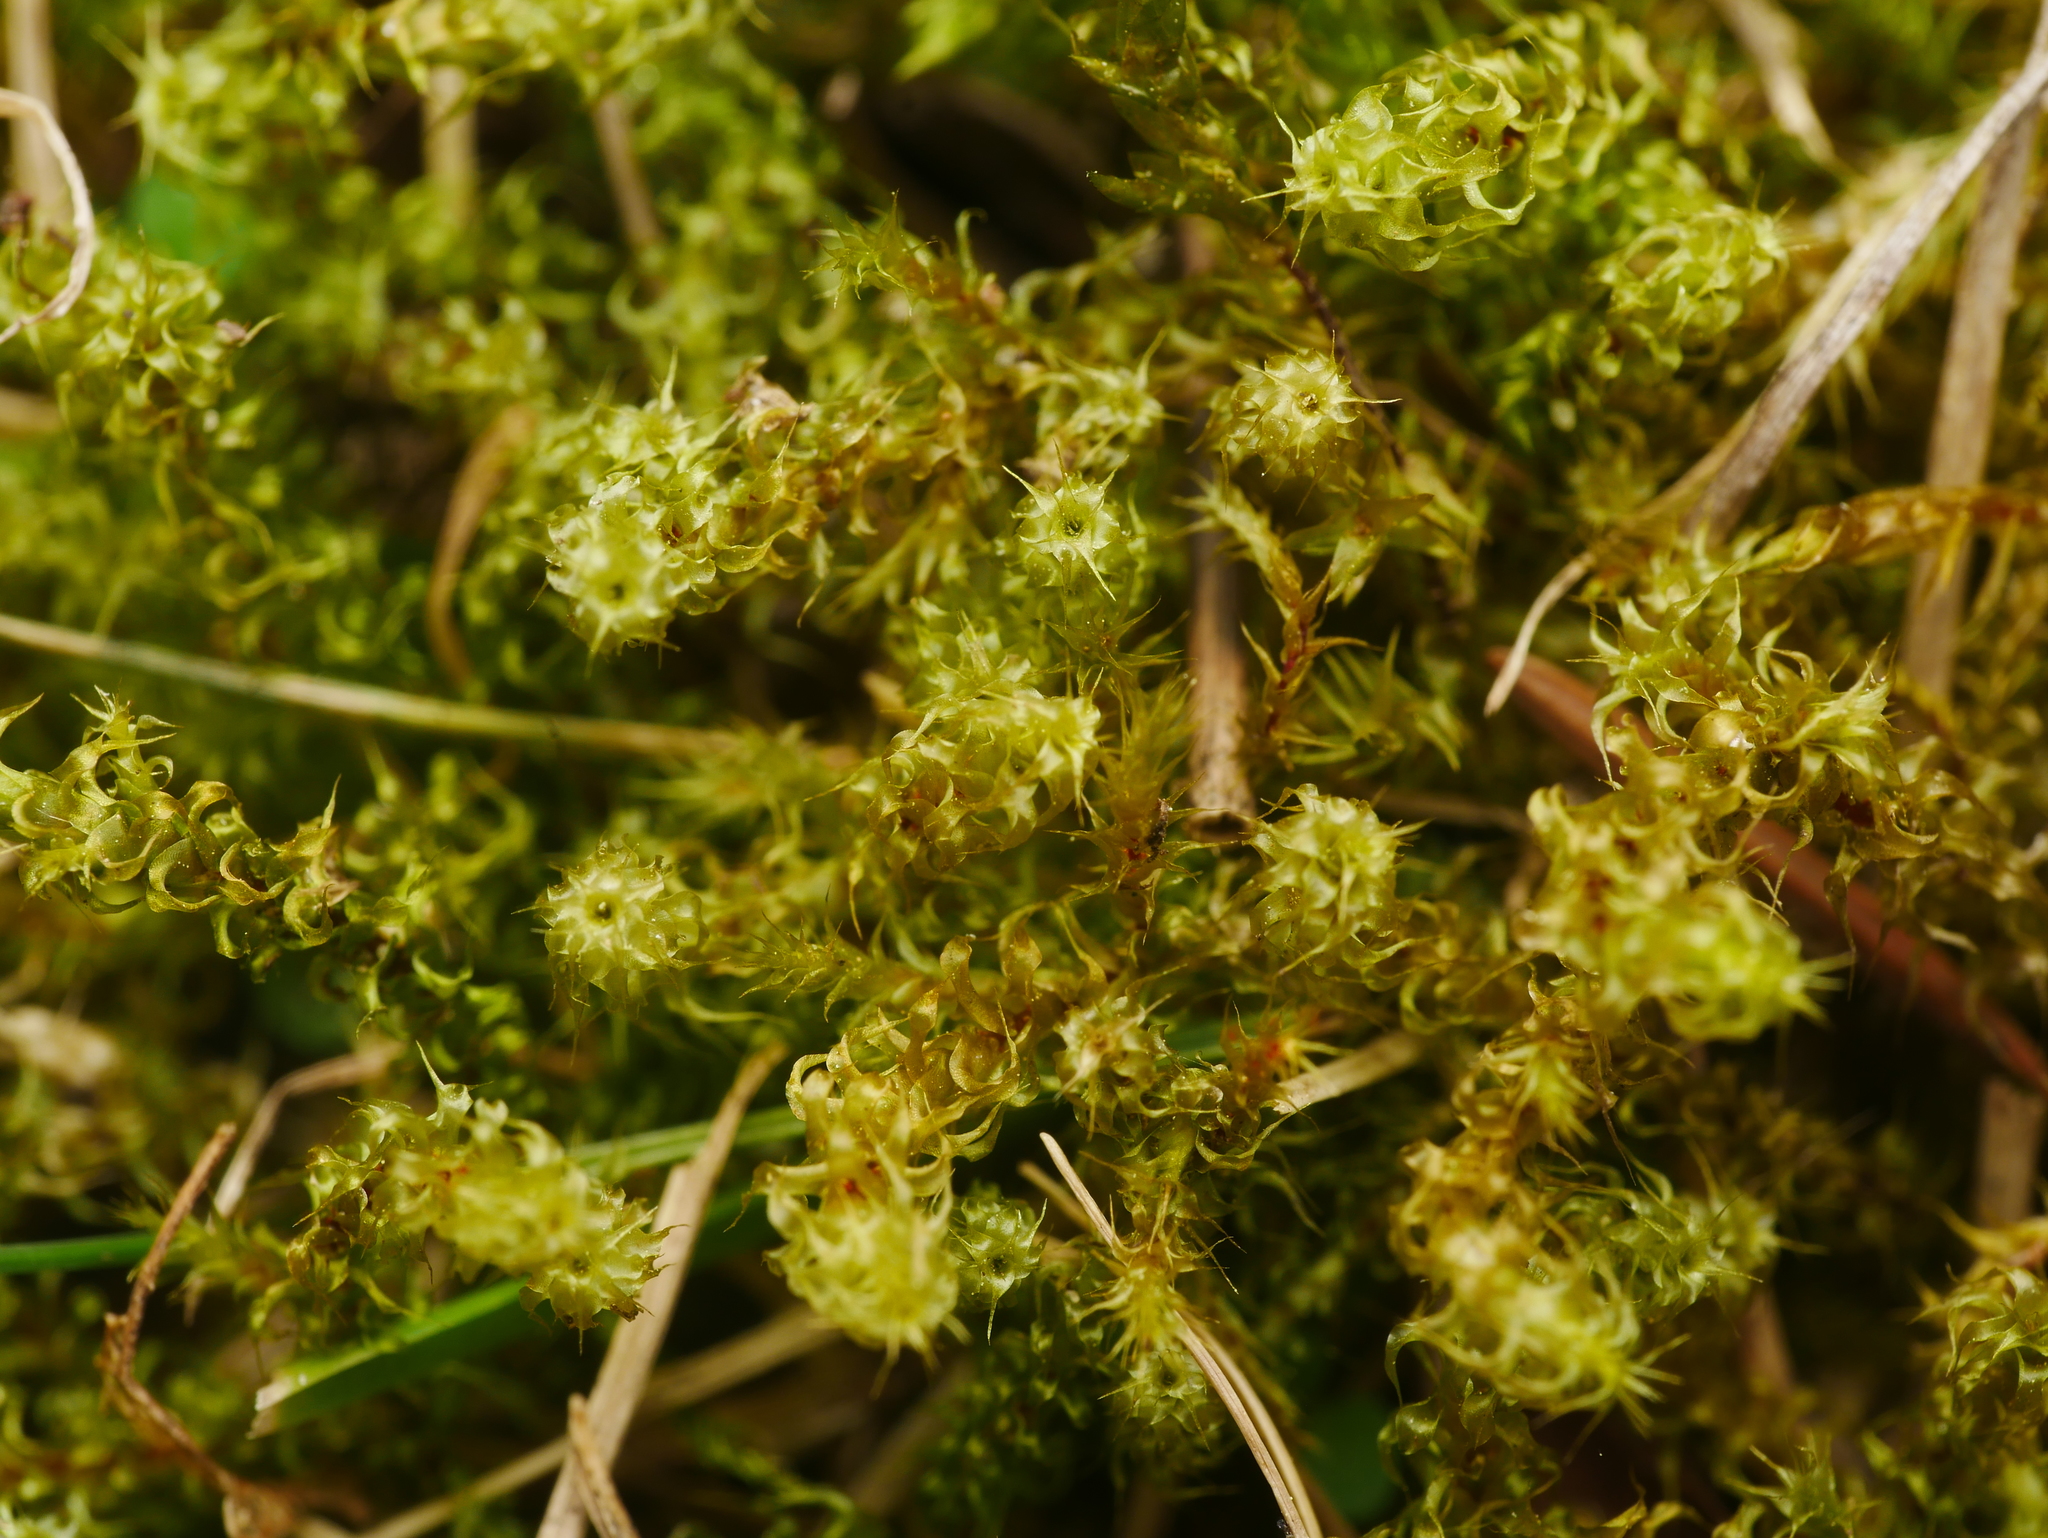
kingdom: Plantae
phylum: Bryophyta
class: Bryopsida
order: Hypnales
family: Hylocomiaceae
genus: Rhytidiadelphus
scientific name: Rhytidiadelphus squarrosus
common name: Springy turf-moss
